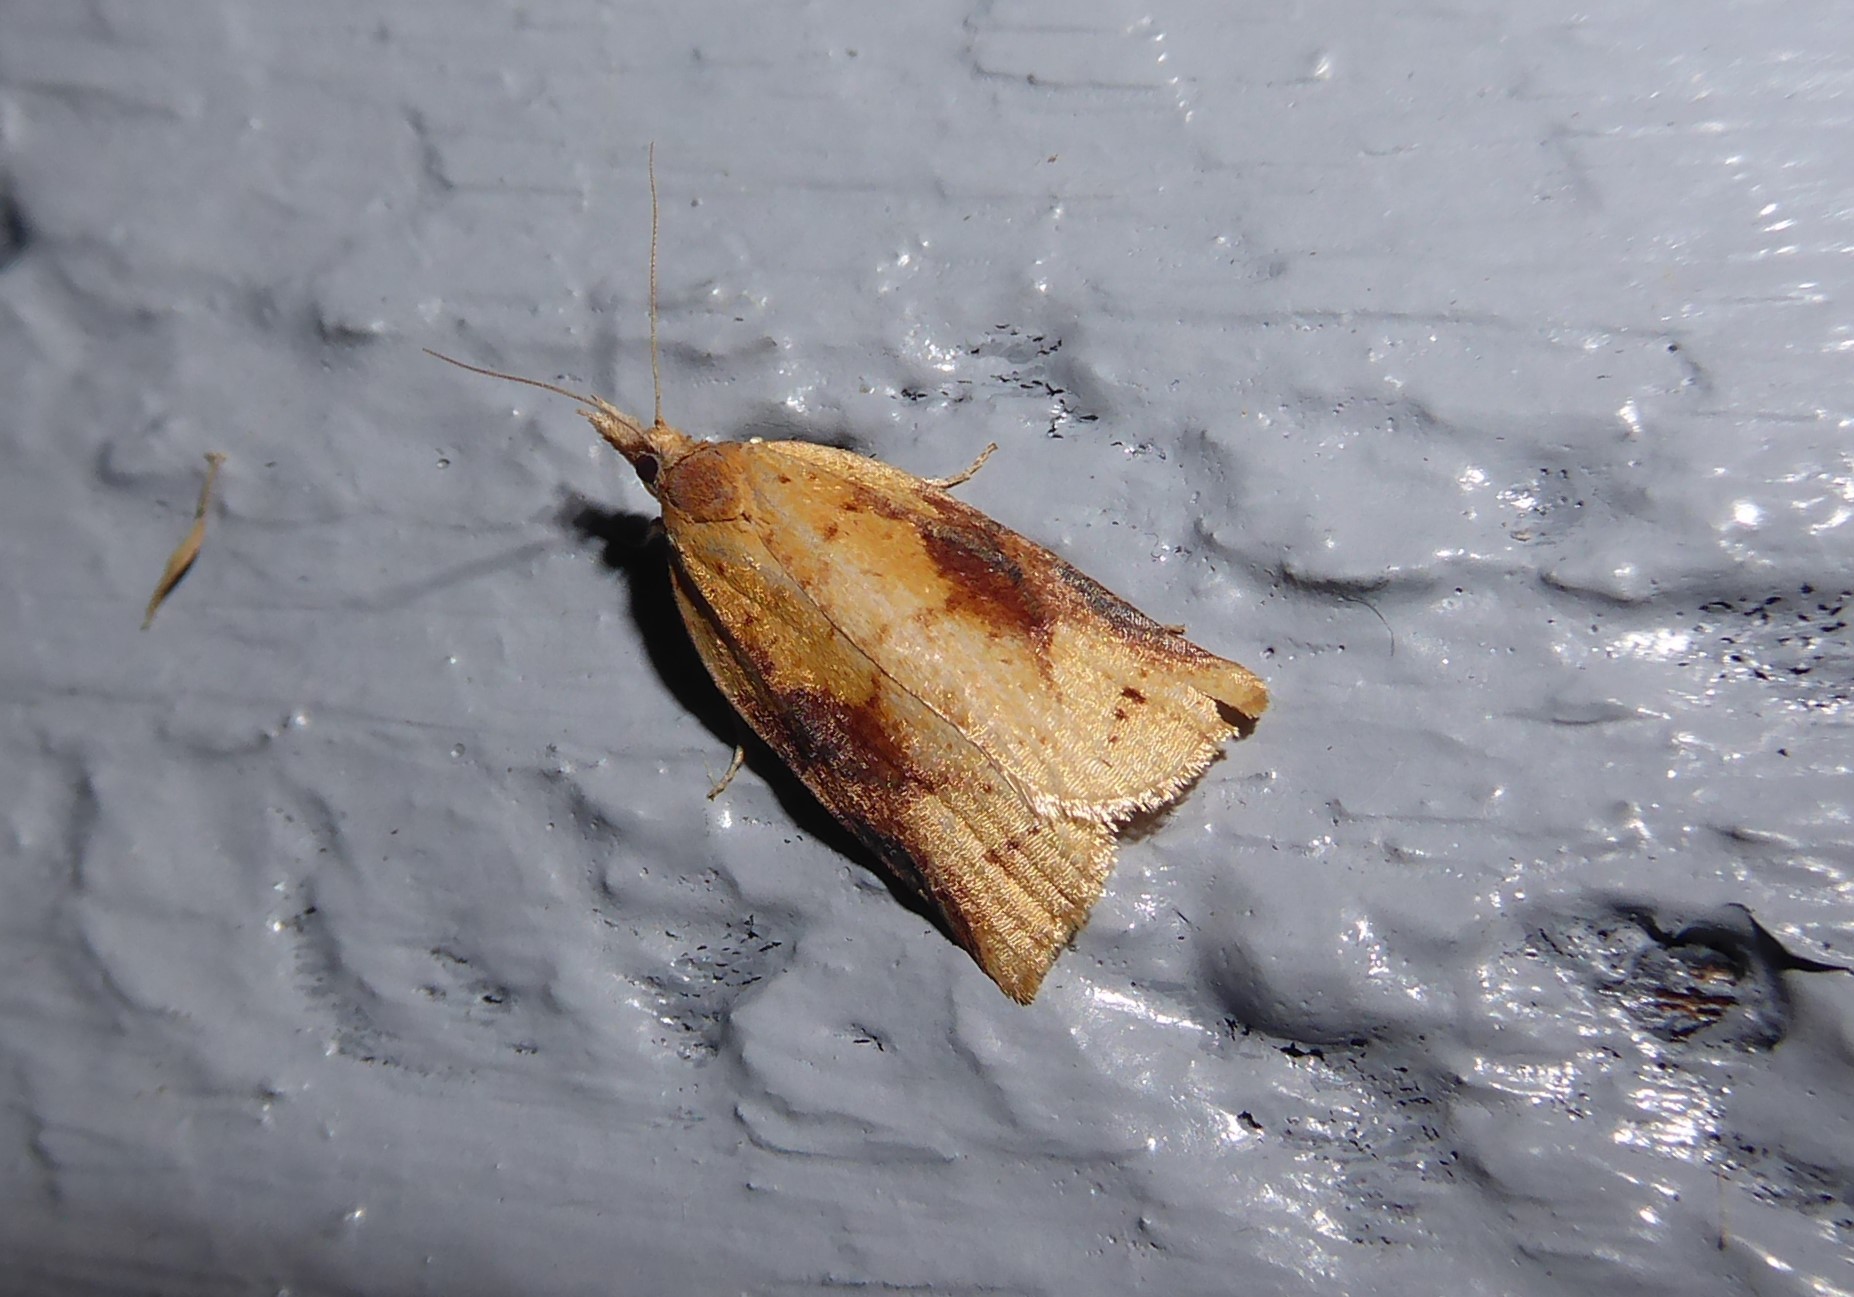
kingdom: Animalia
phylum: Arthropoda
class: Insecta
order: Lepidoptera
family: Tortricidae
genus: Apoctena
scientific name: Apoctena conditana
